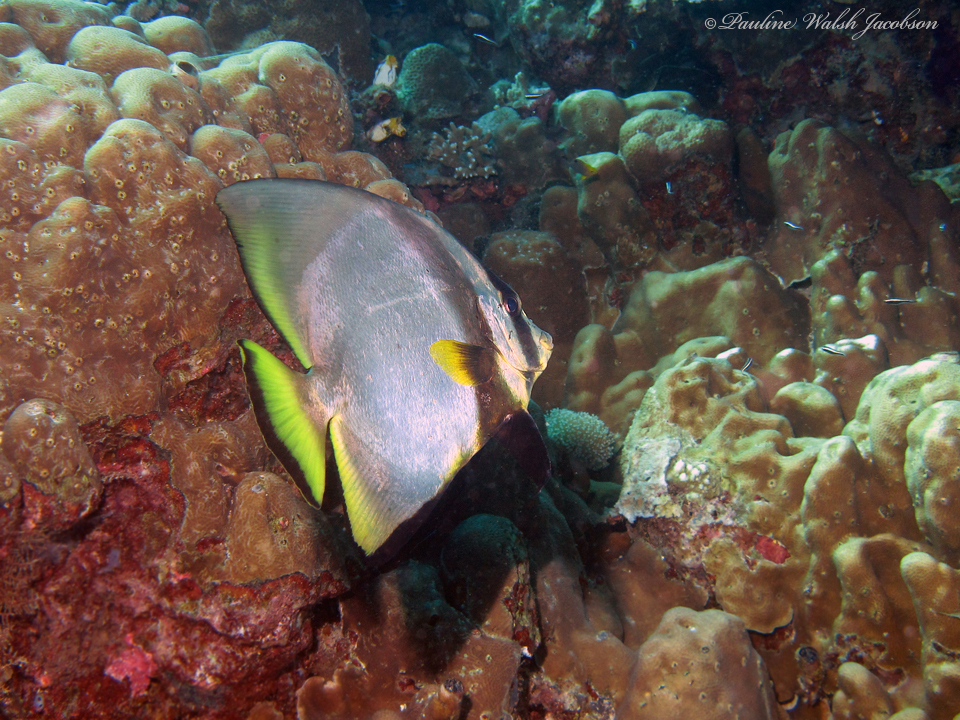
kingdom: Animalia
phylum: Chordata
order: Perciformes
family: Ephippidae
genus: Platax
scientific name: Platax pinnatus
